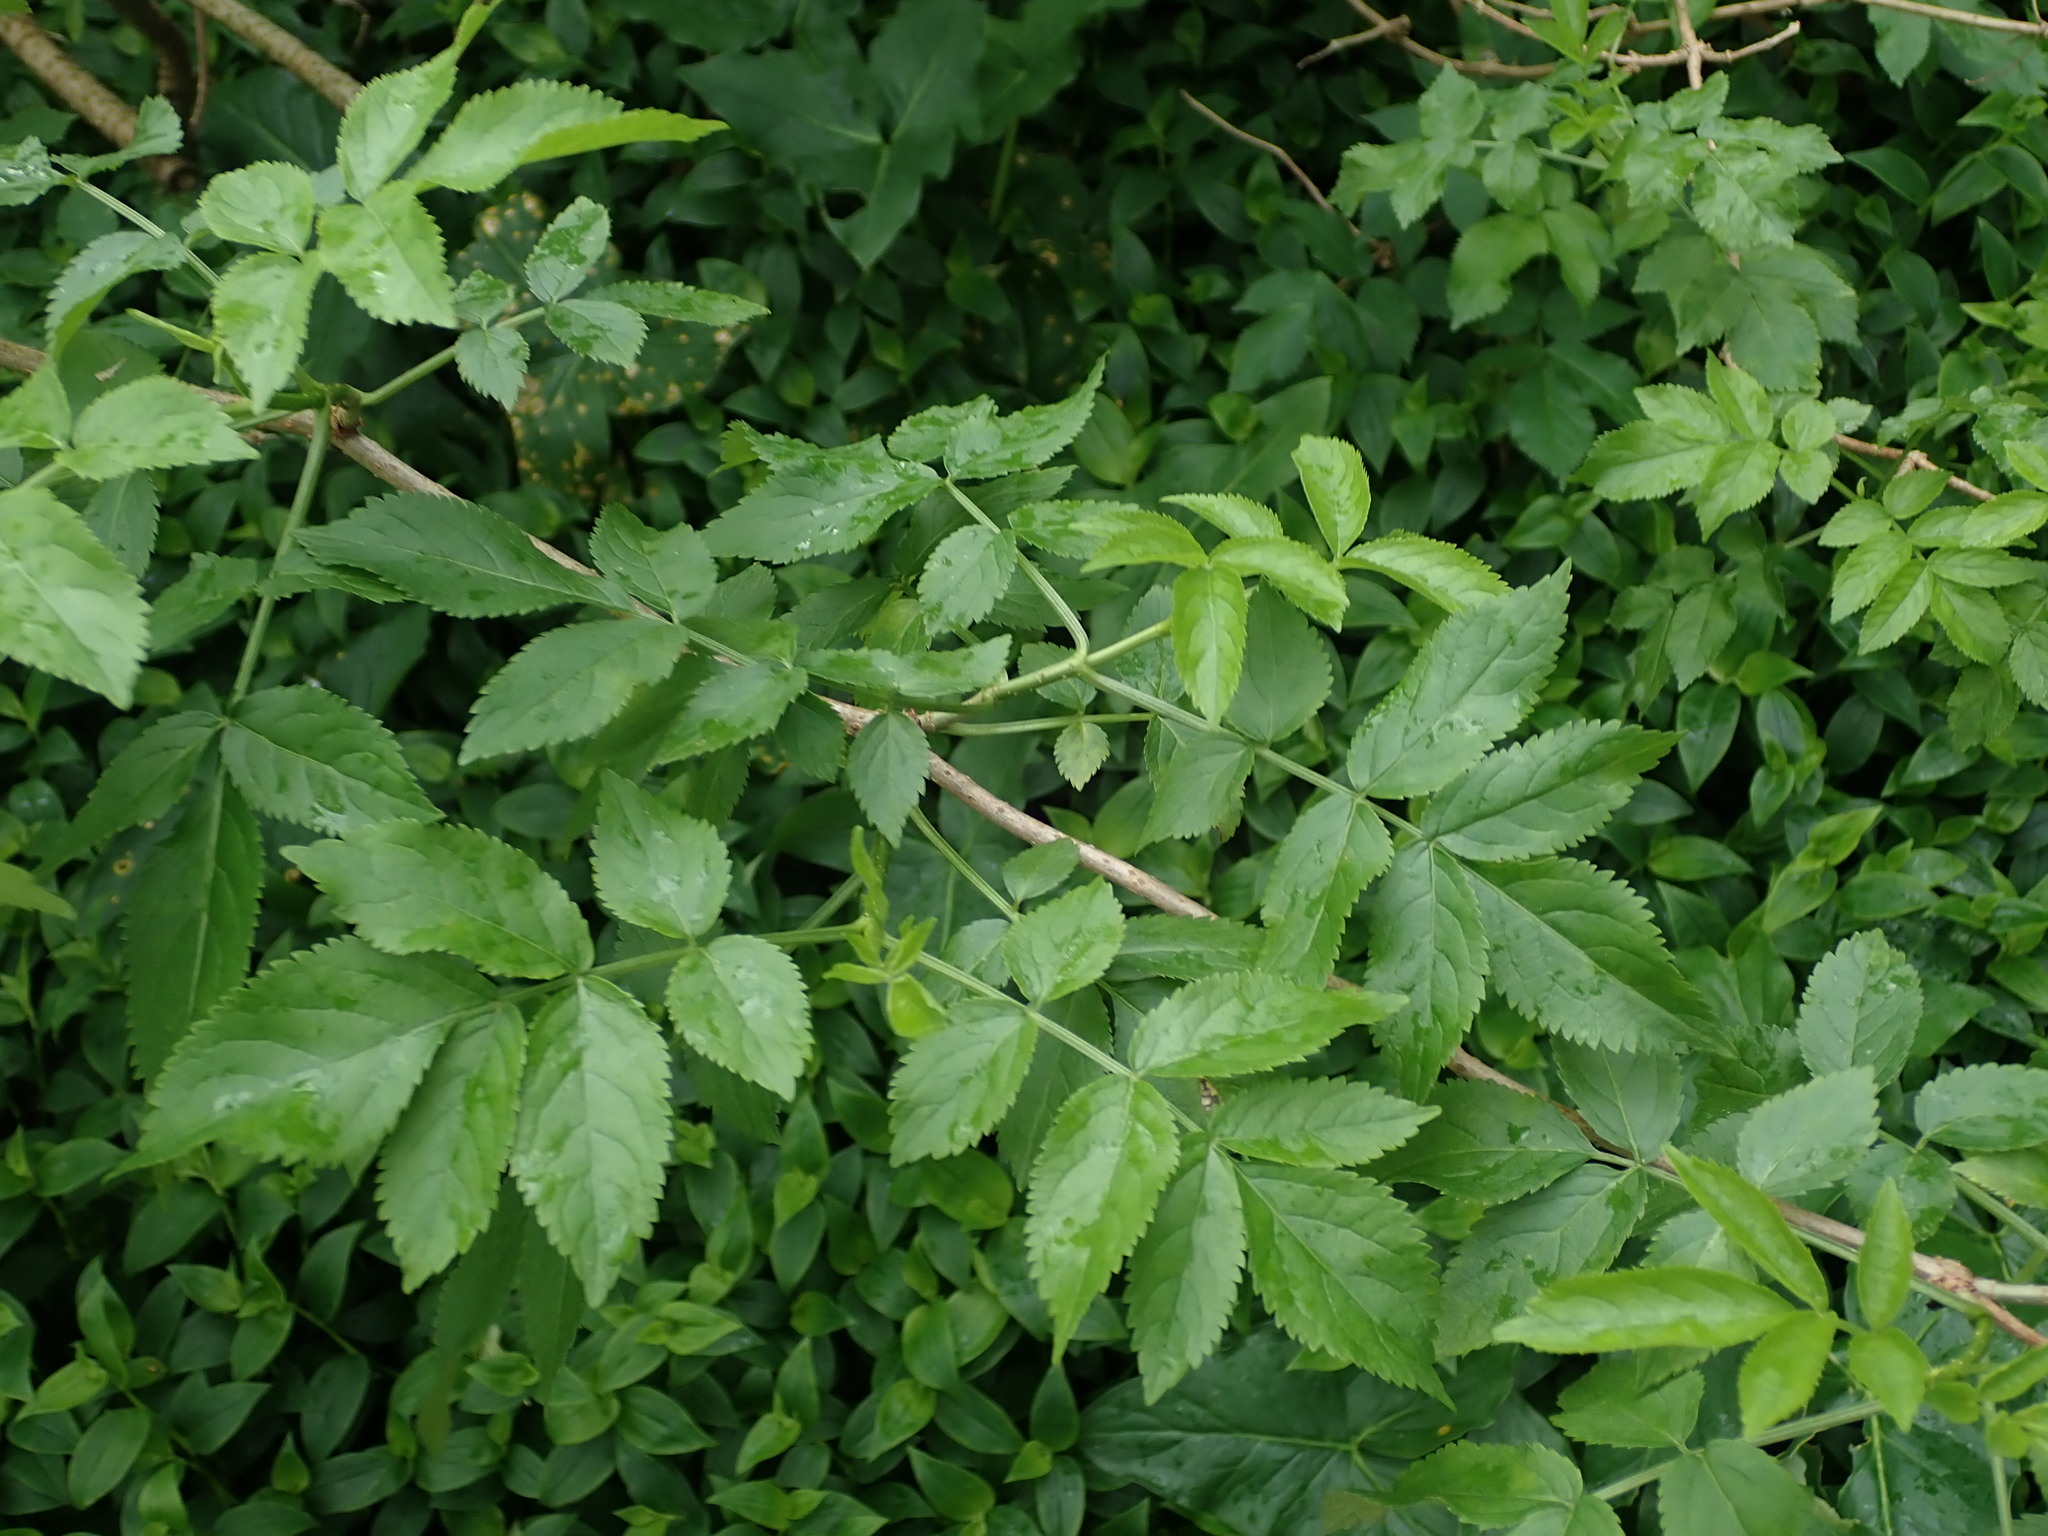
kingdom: Plantae
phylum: Tracheophyta
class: Magnoliopsida
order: Dipsacales
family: Viburnaceae
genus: Sambucus
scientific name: Sambucus nigra
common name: Elder
